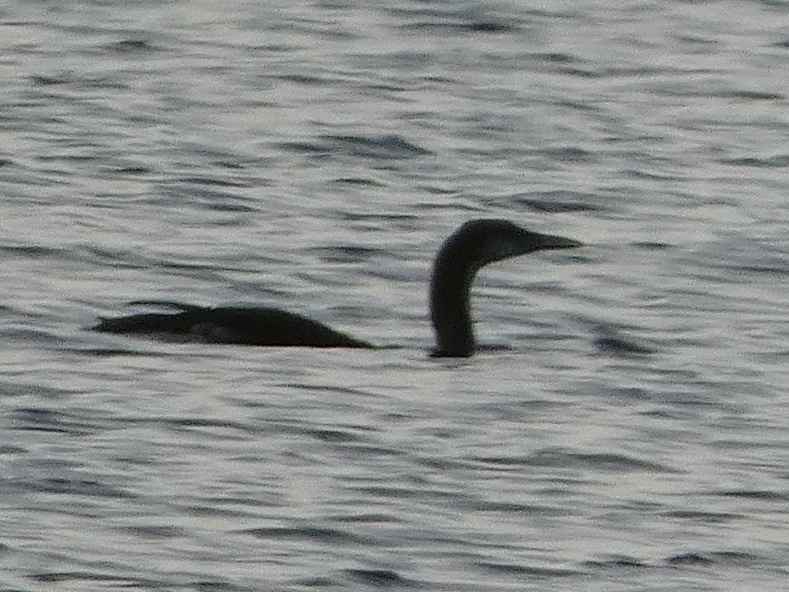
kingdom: Animalia
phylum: Chordata
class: Aves
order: Gaviiformes
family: Gaviidae
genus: Gavia
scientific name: Gavia arctica
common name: Black-throated loon
